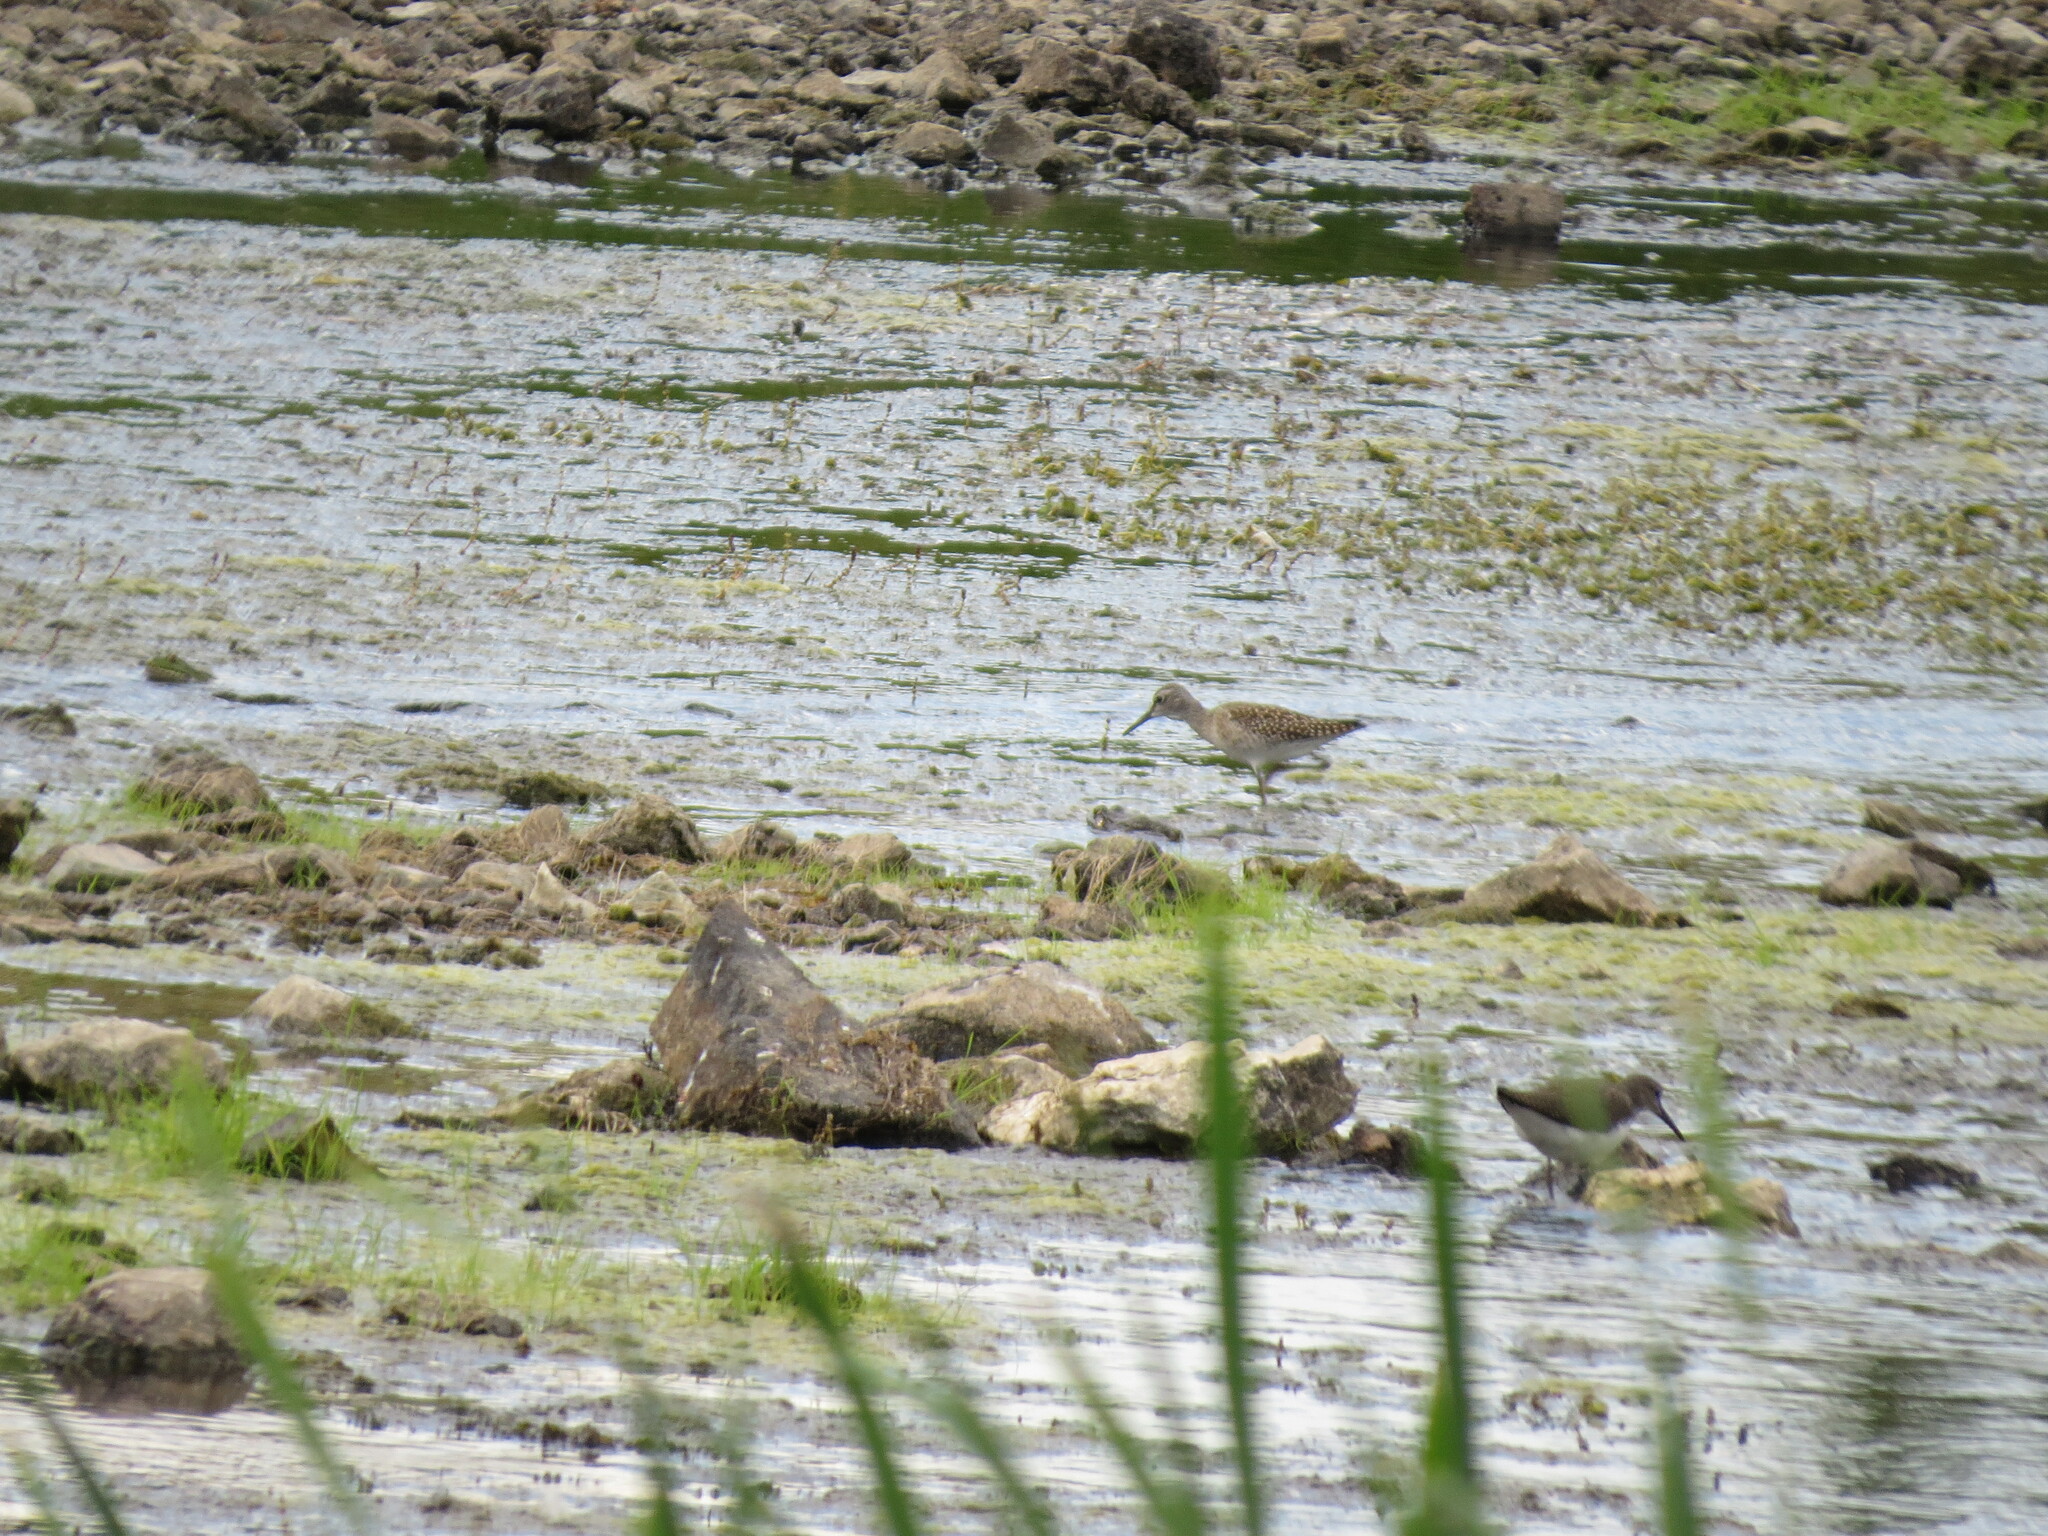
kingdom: Animalia
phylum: Chordata
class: Aves
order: Charadriiformes
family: Scolopacidae
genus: Tringa
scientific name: Tringa glareola
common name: Wood sandpiper
